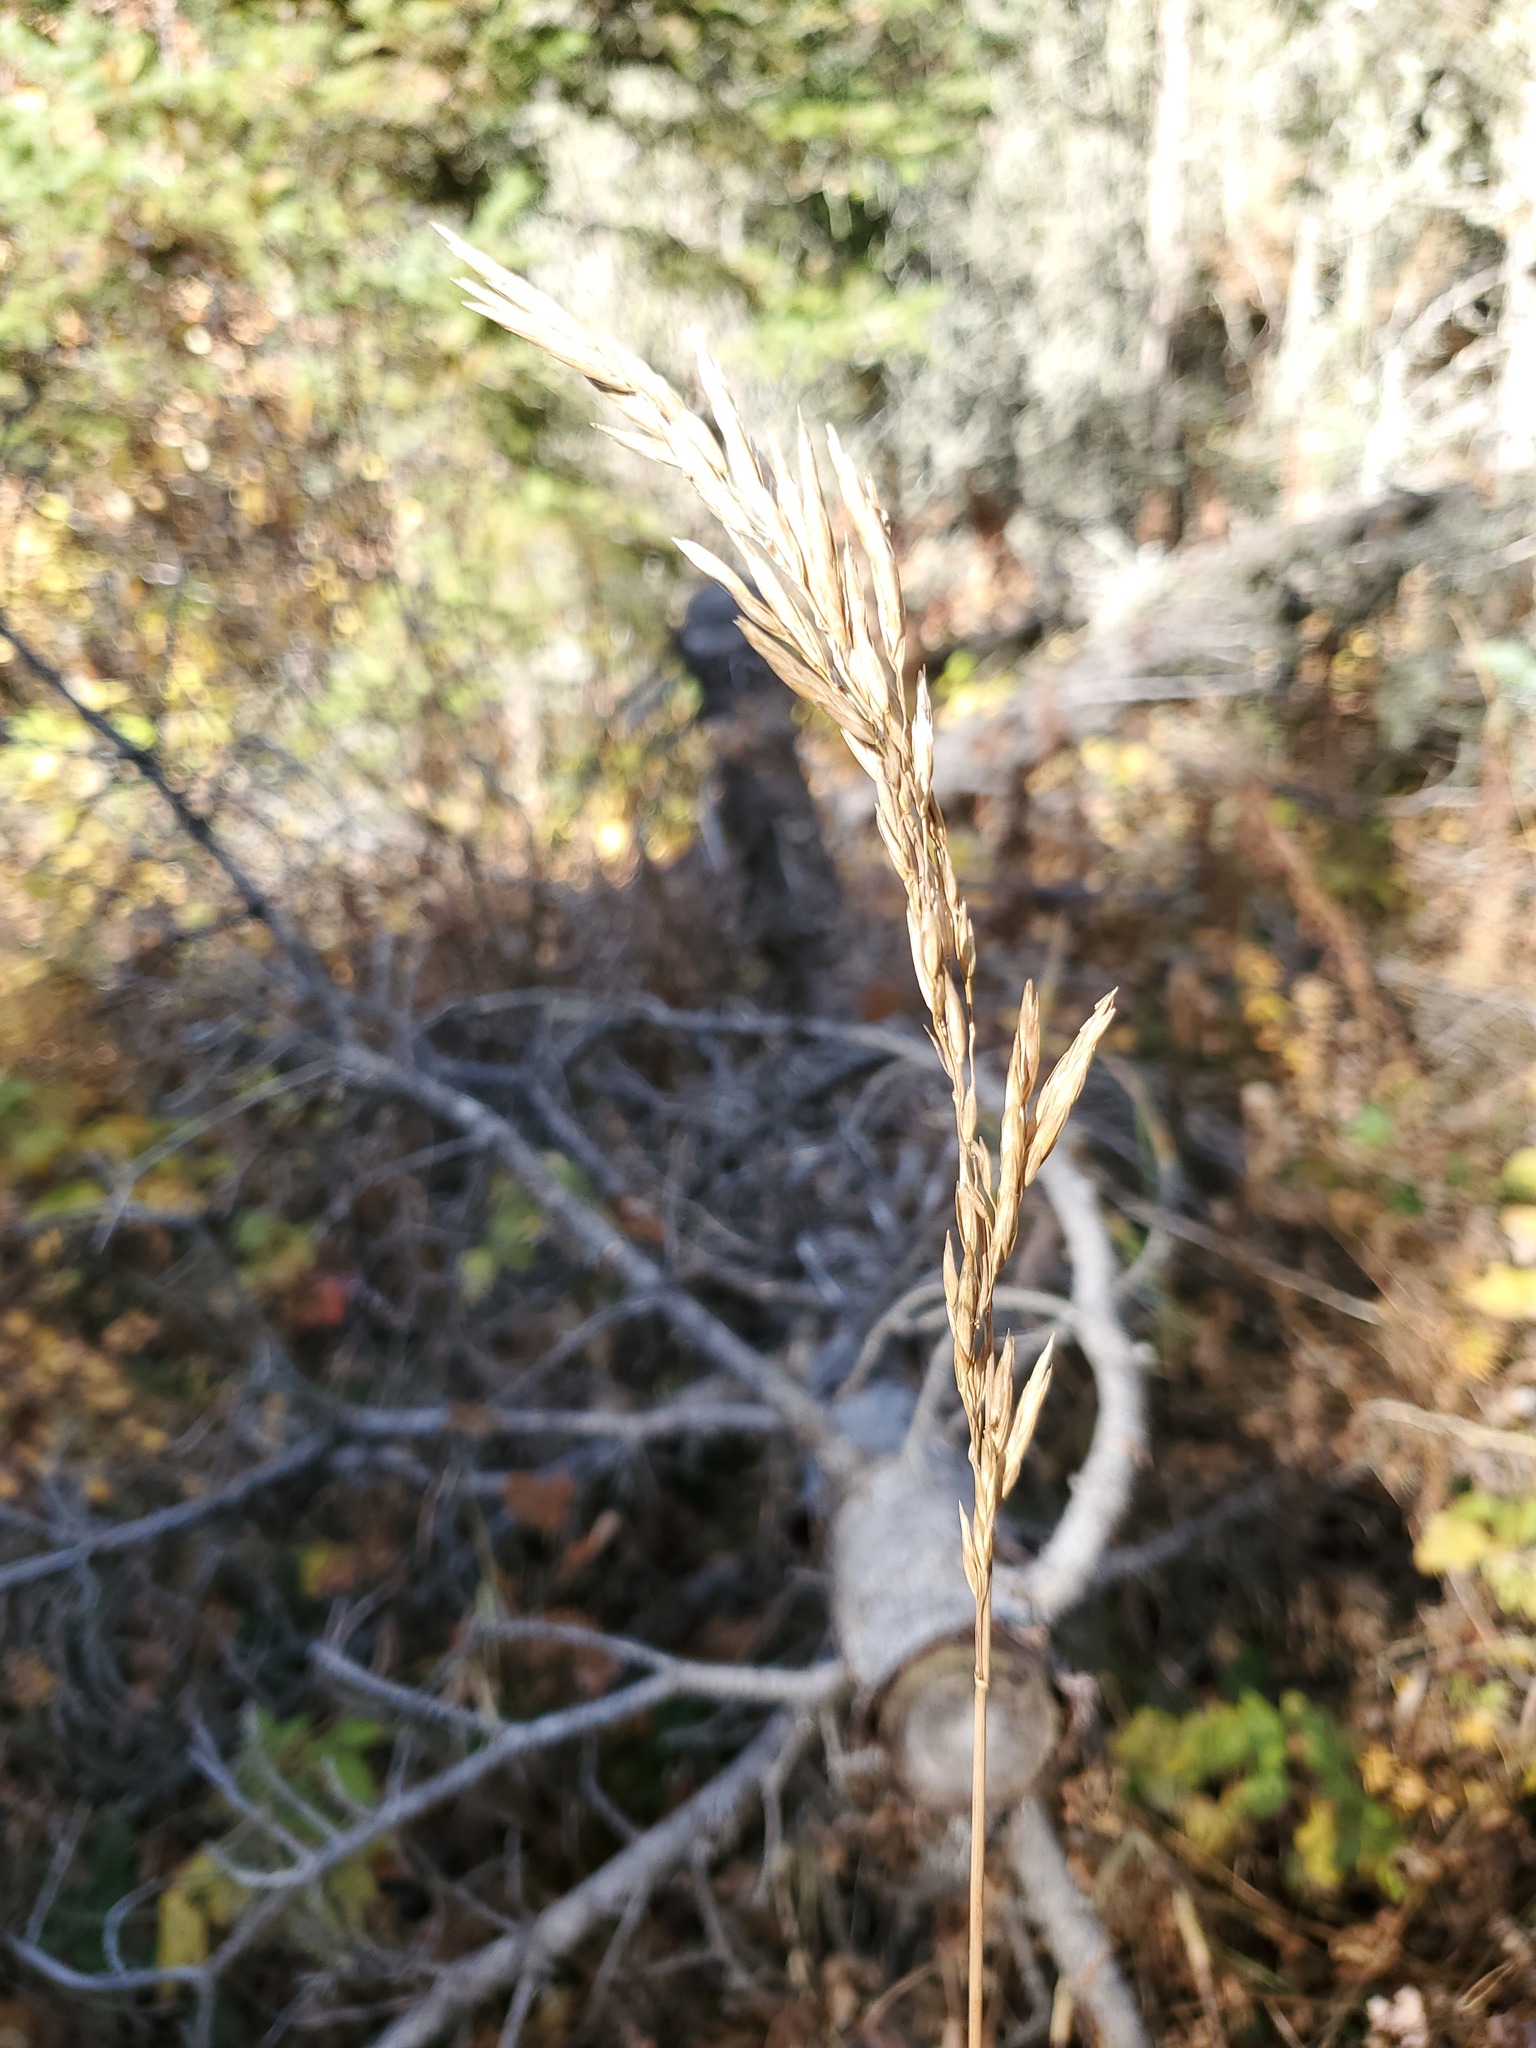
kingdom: Plantae
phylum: Tracheophyta
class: Liliopsida
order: Poales
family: Poaceae
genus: Bromus
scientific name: Bromus inermis
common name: Smooth brome
